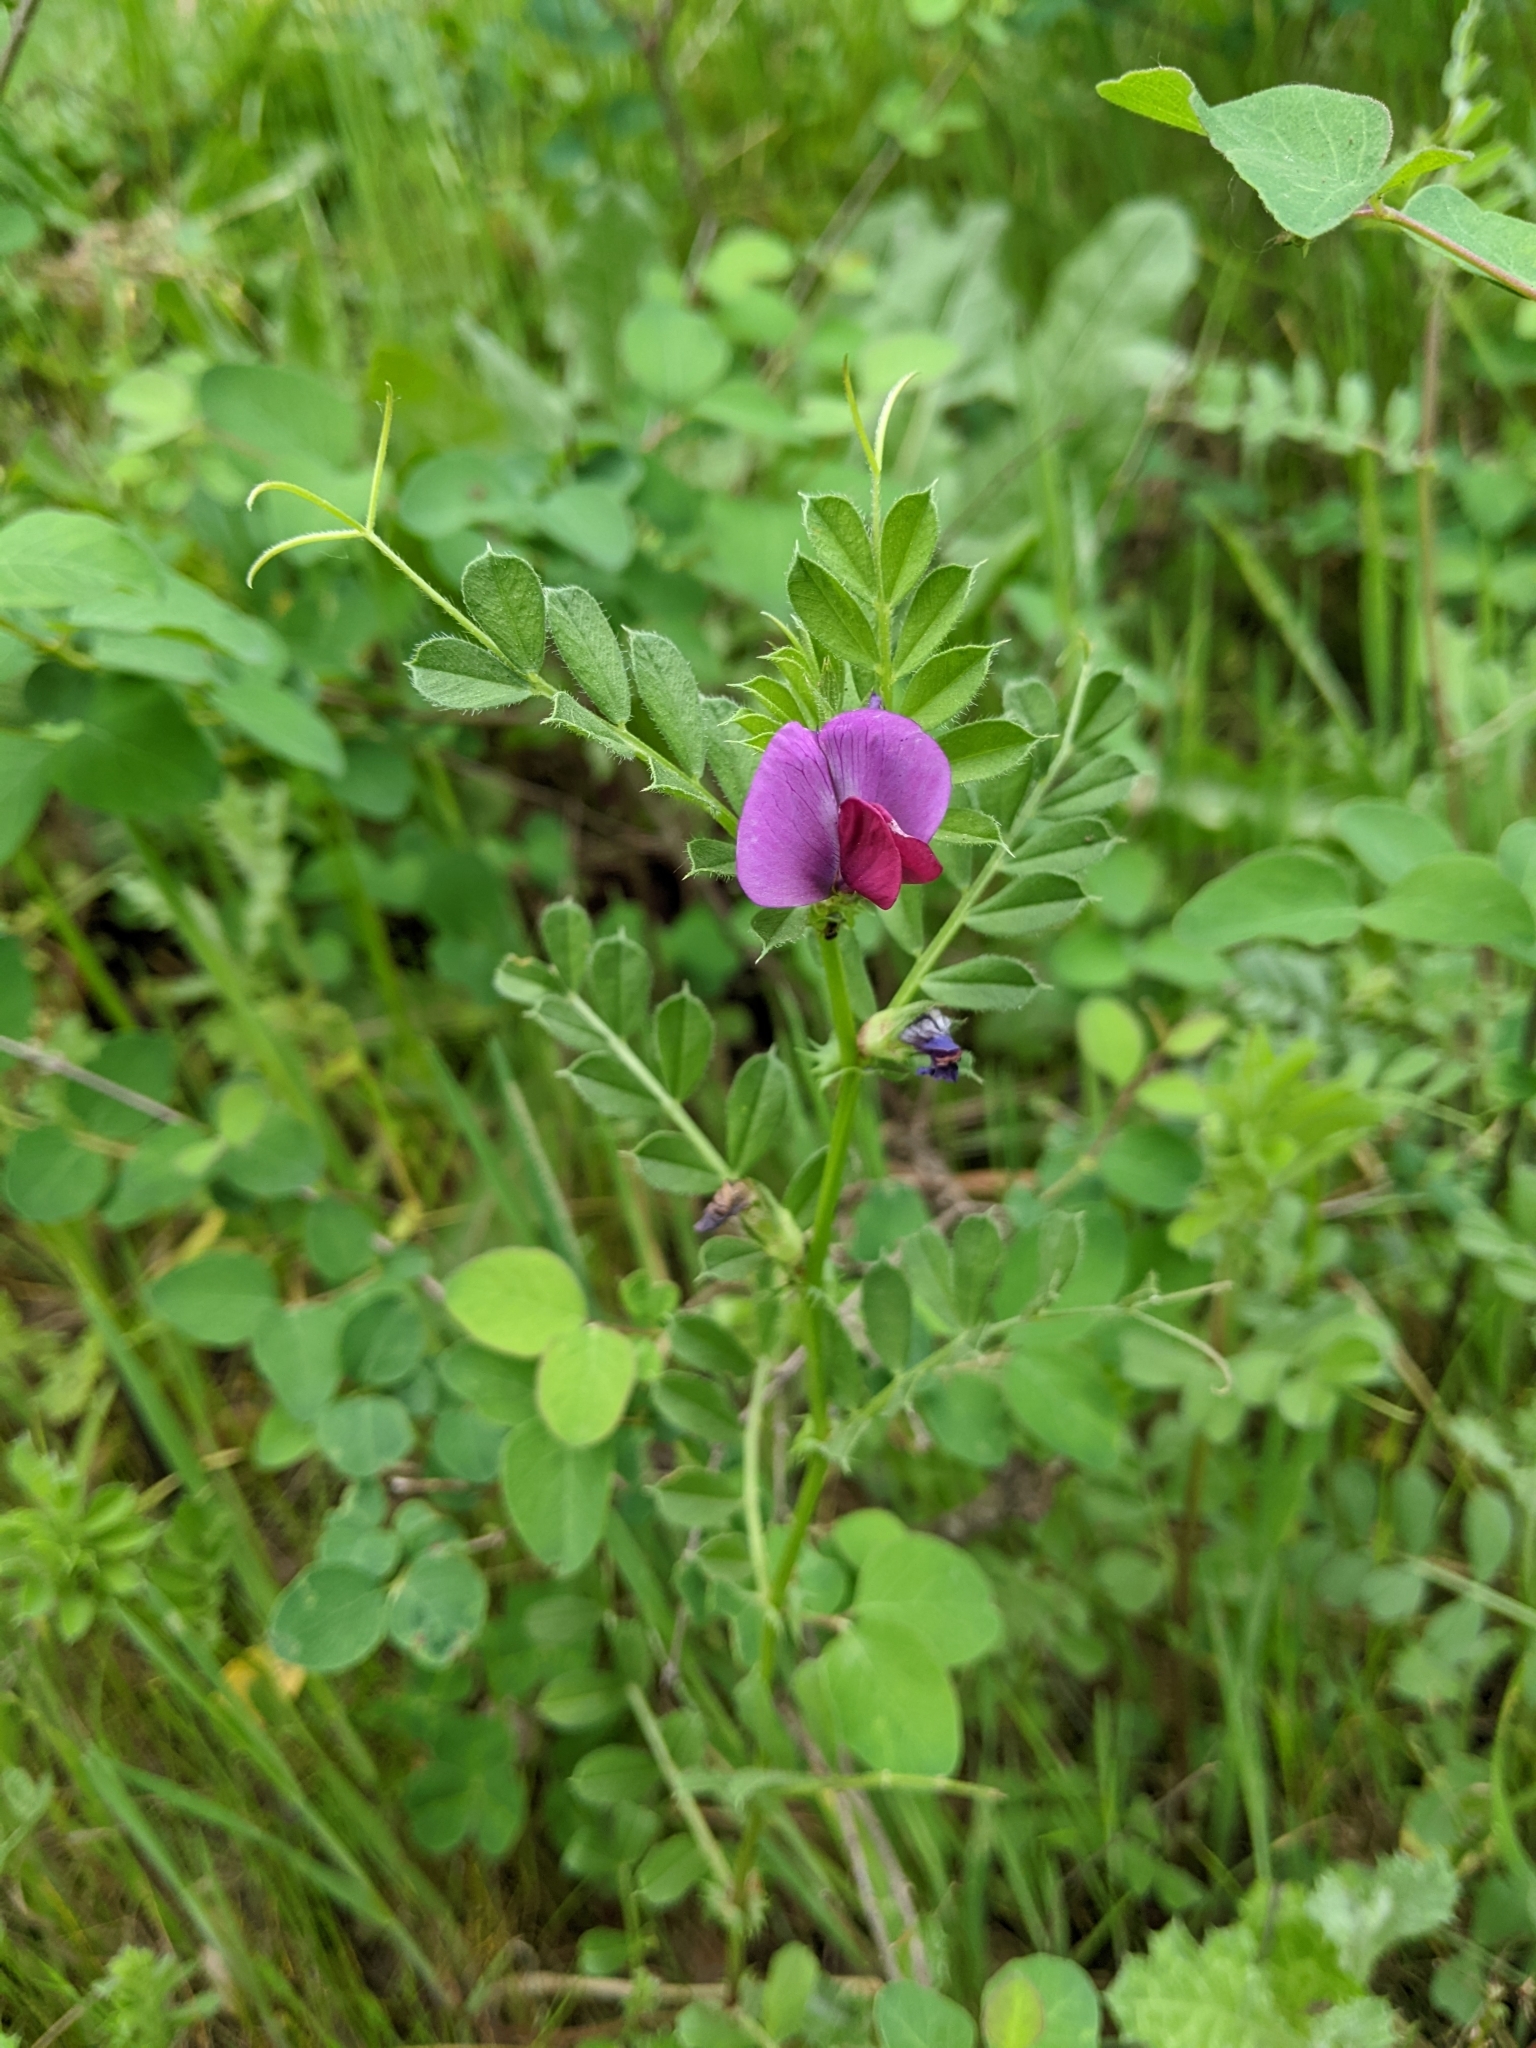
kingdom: Plantae
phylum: Tracheophyta
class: Magnoliopsida
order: Fabales
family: Fabaceae
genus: Vicia
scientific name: Vicia sativa
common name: Garden vetch
